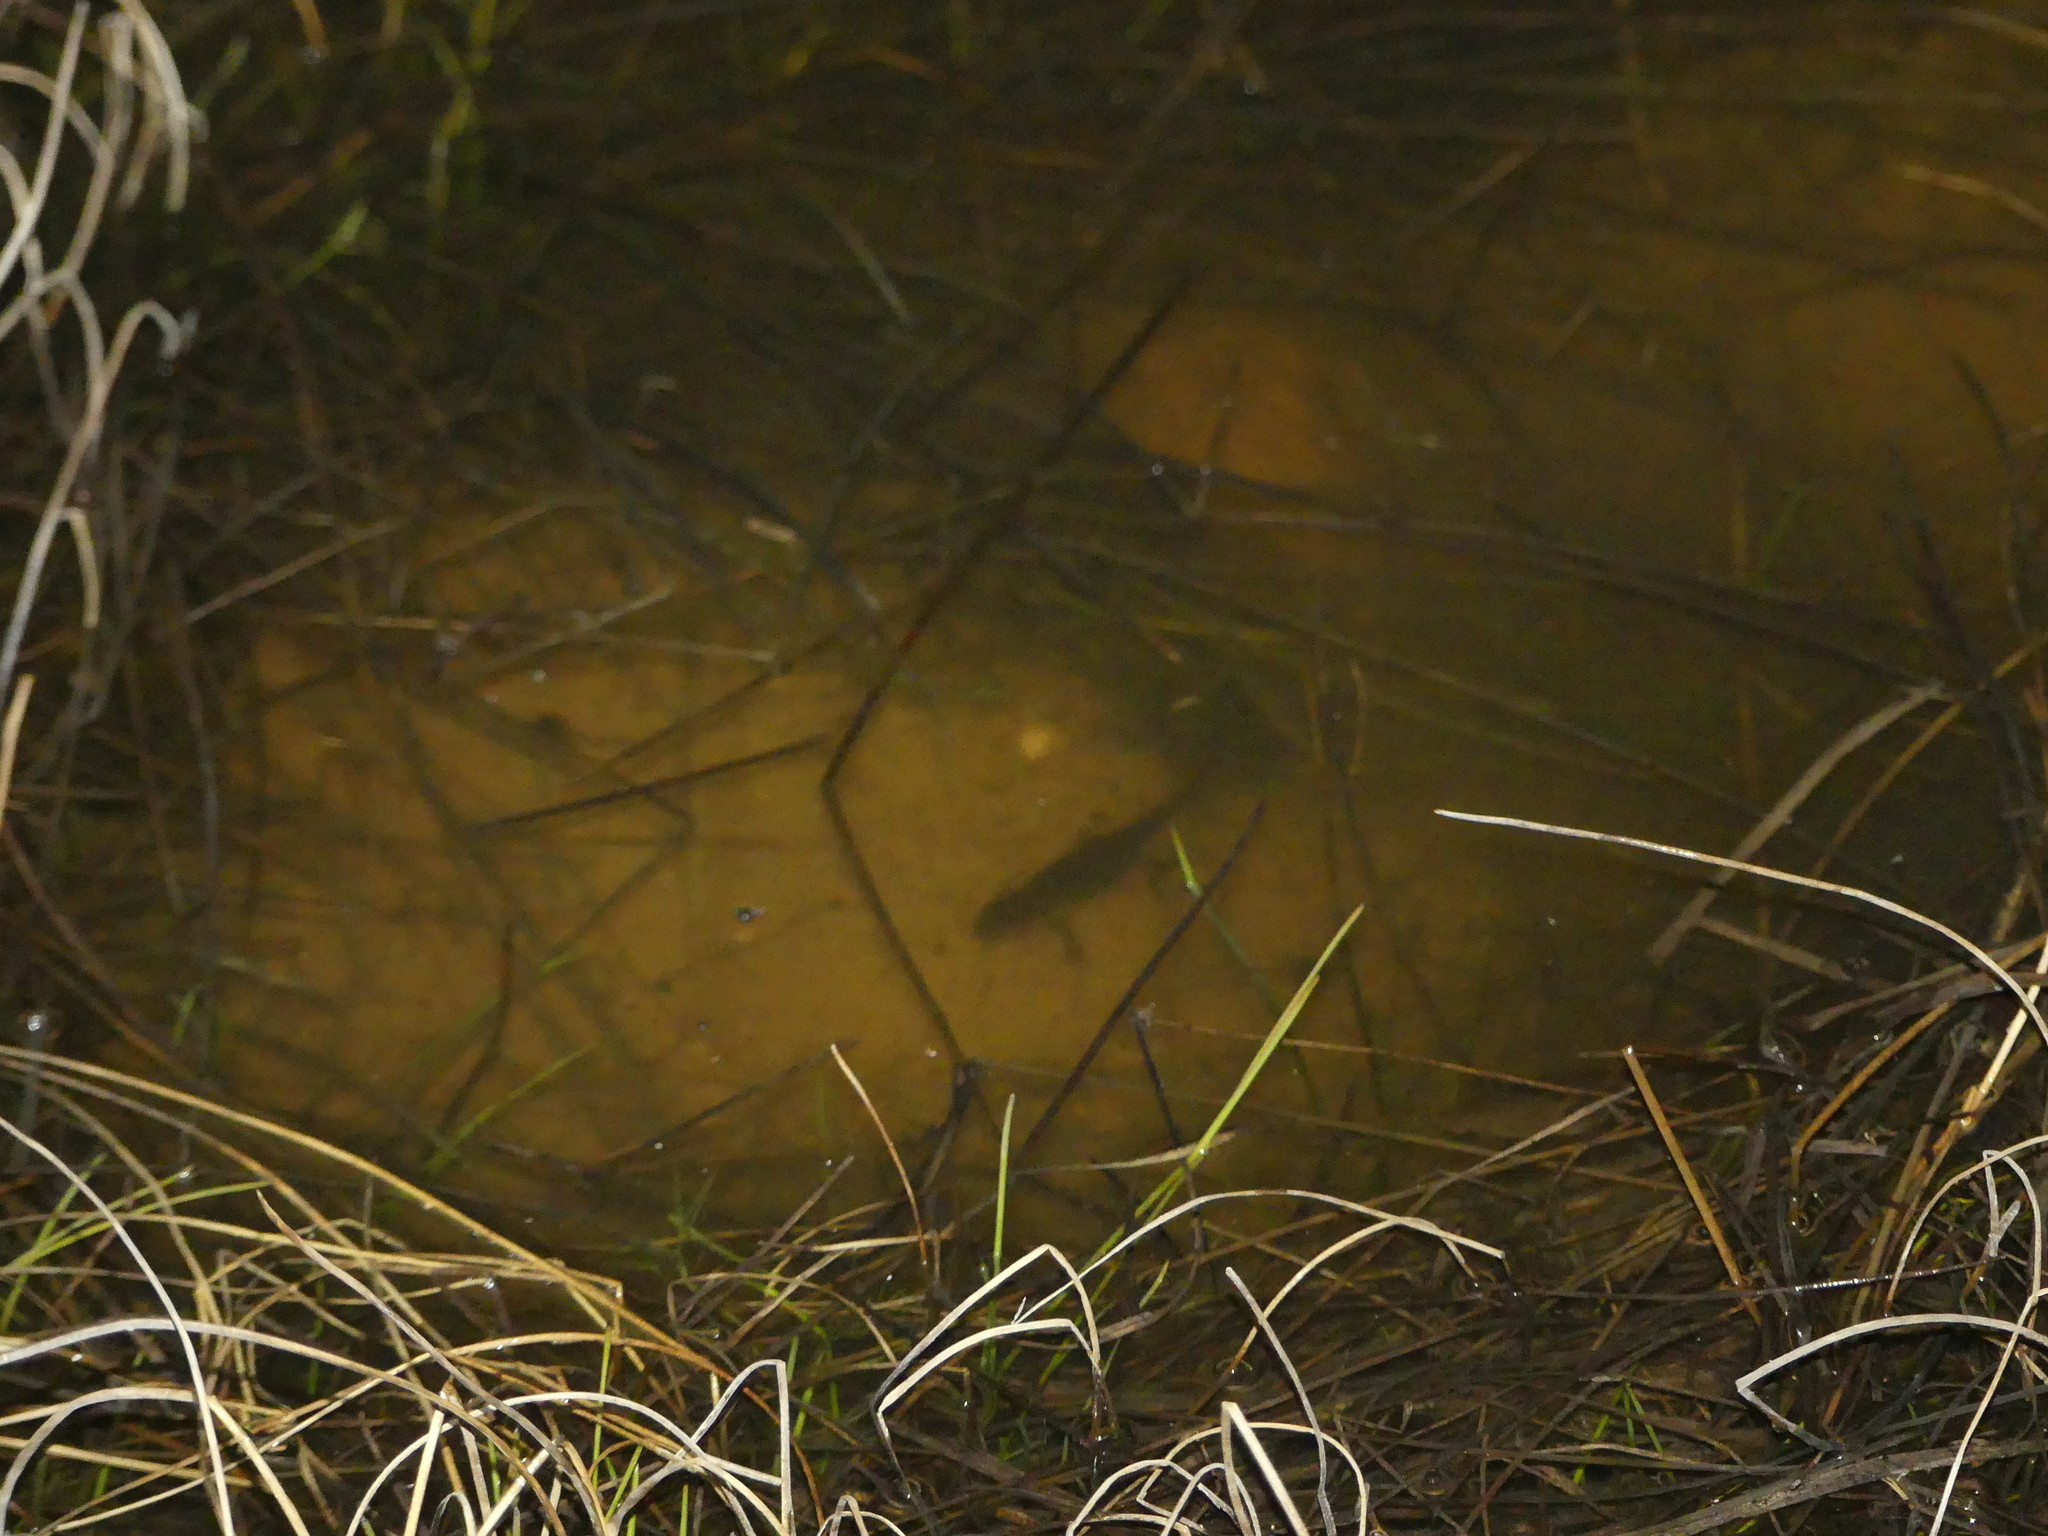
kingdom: Animalia
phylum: Chordata
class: Amphibia
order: Caudata
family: Salamandridae
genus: Lissotriton
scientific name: Lissotriton helveticus
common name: Palmate newt
